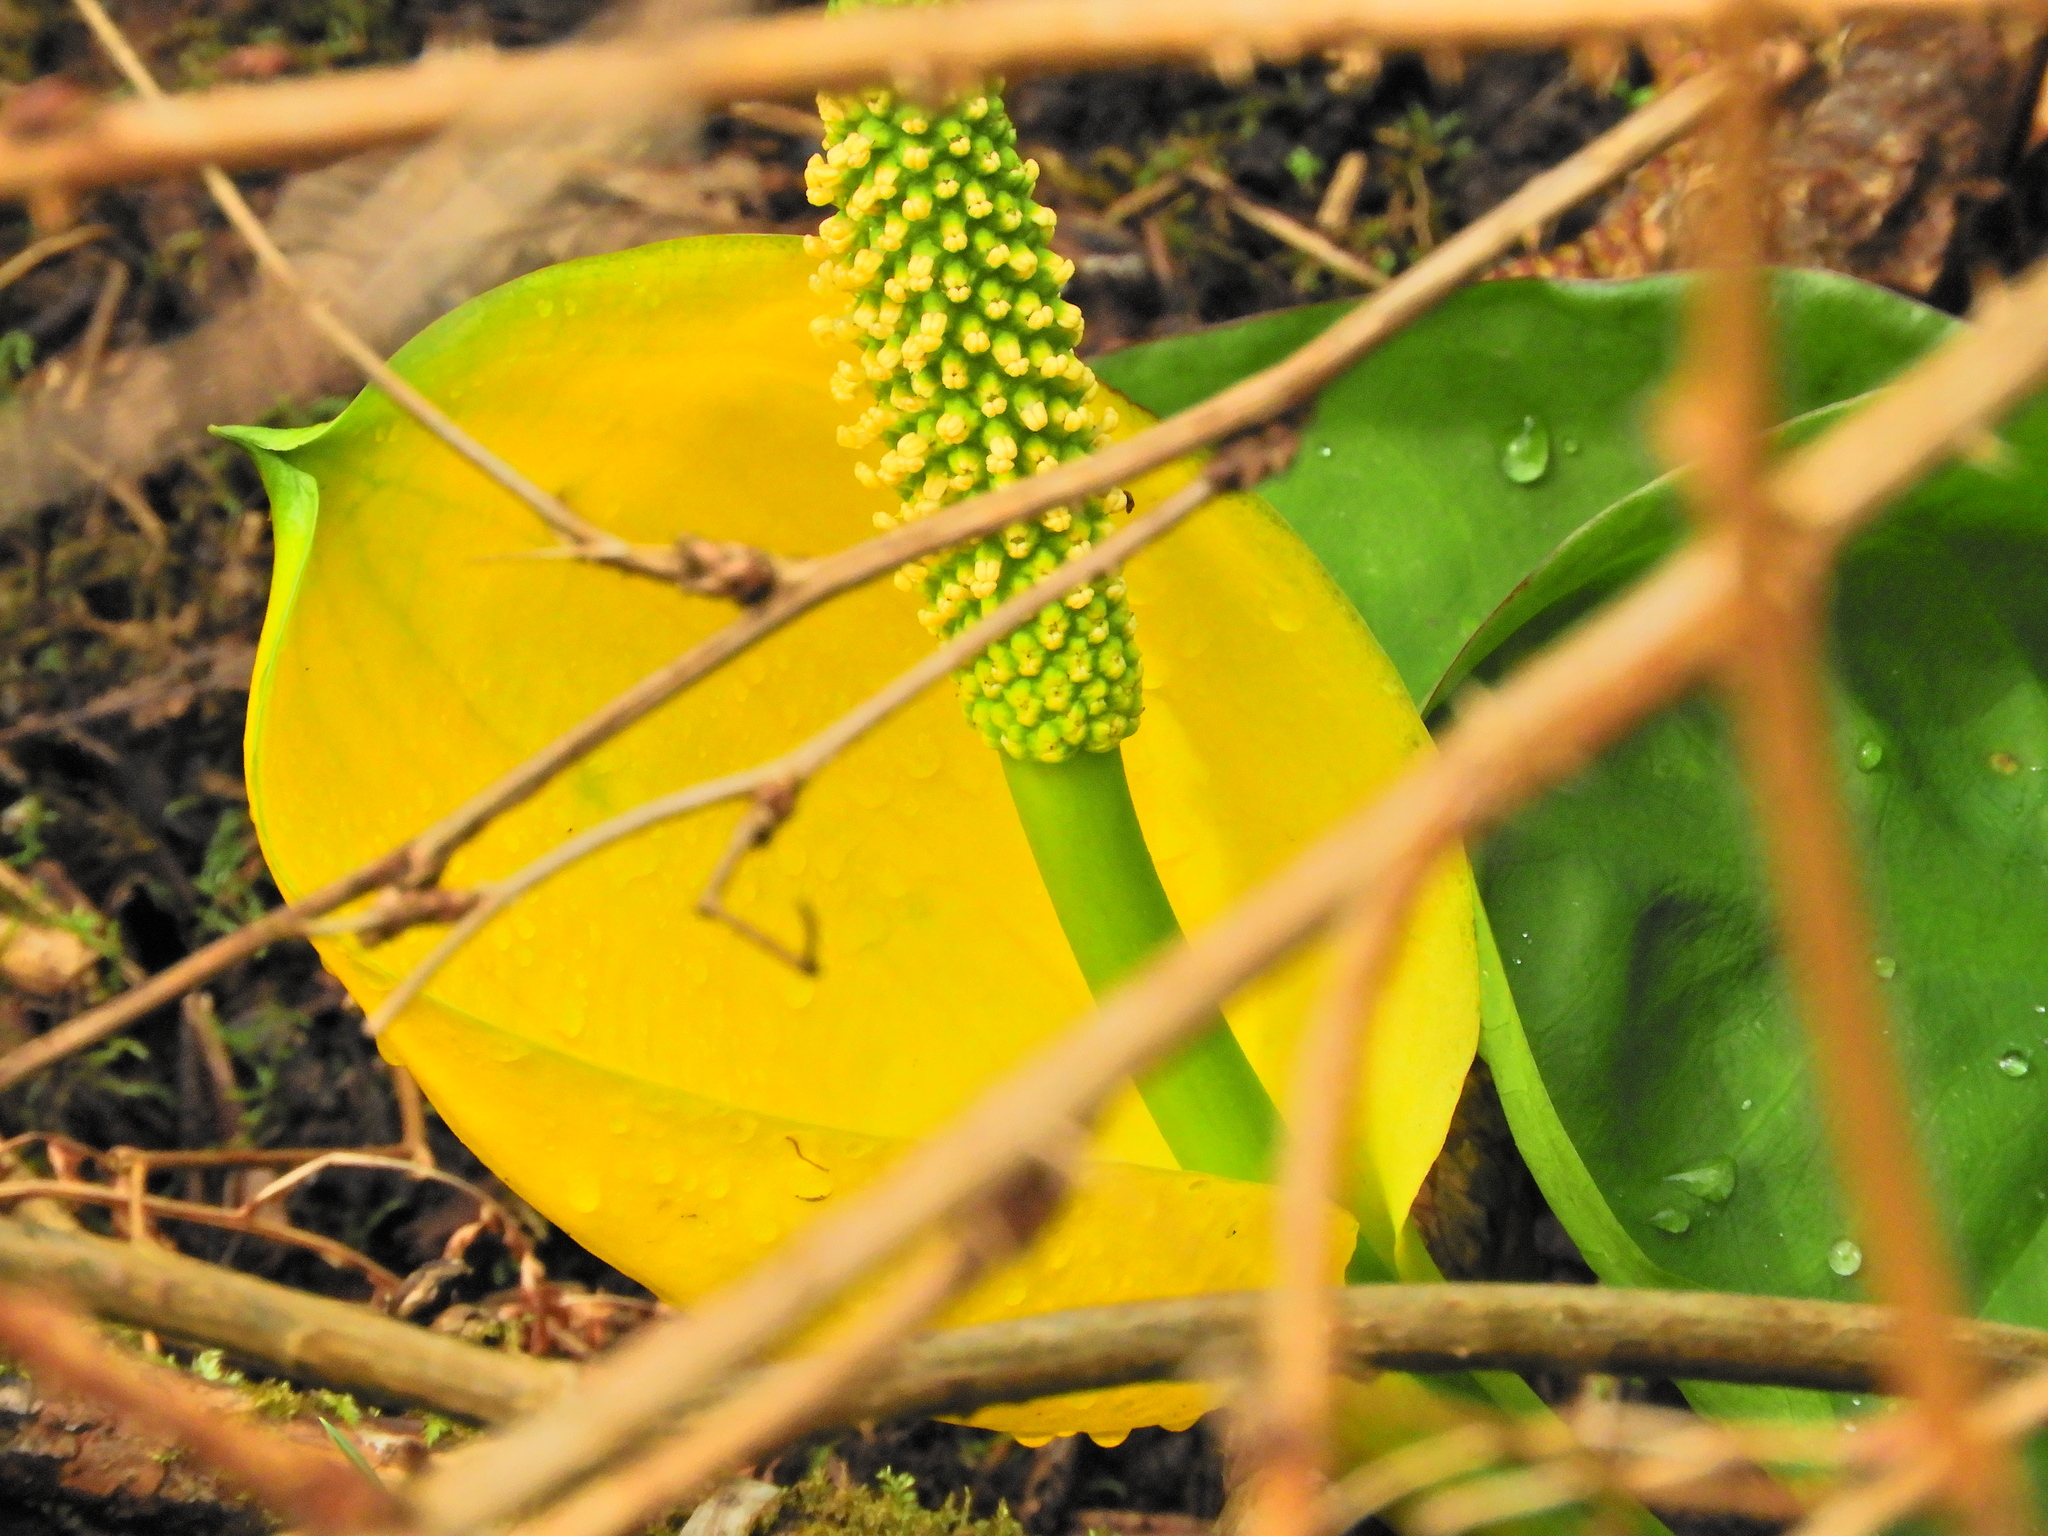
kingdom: Plantae
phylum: Tracheophyta
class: Liliopsida
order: Alismatales
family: Araceae
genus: Lysichiton
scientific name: Lysichiton americanus
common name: American skunk cabbage
